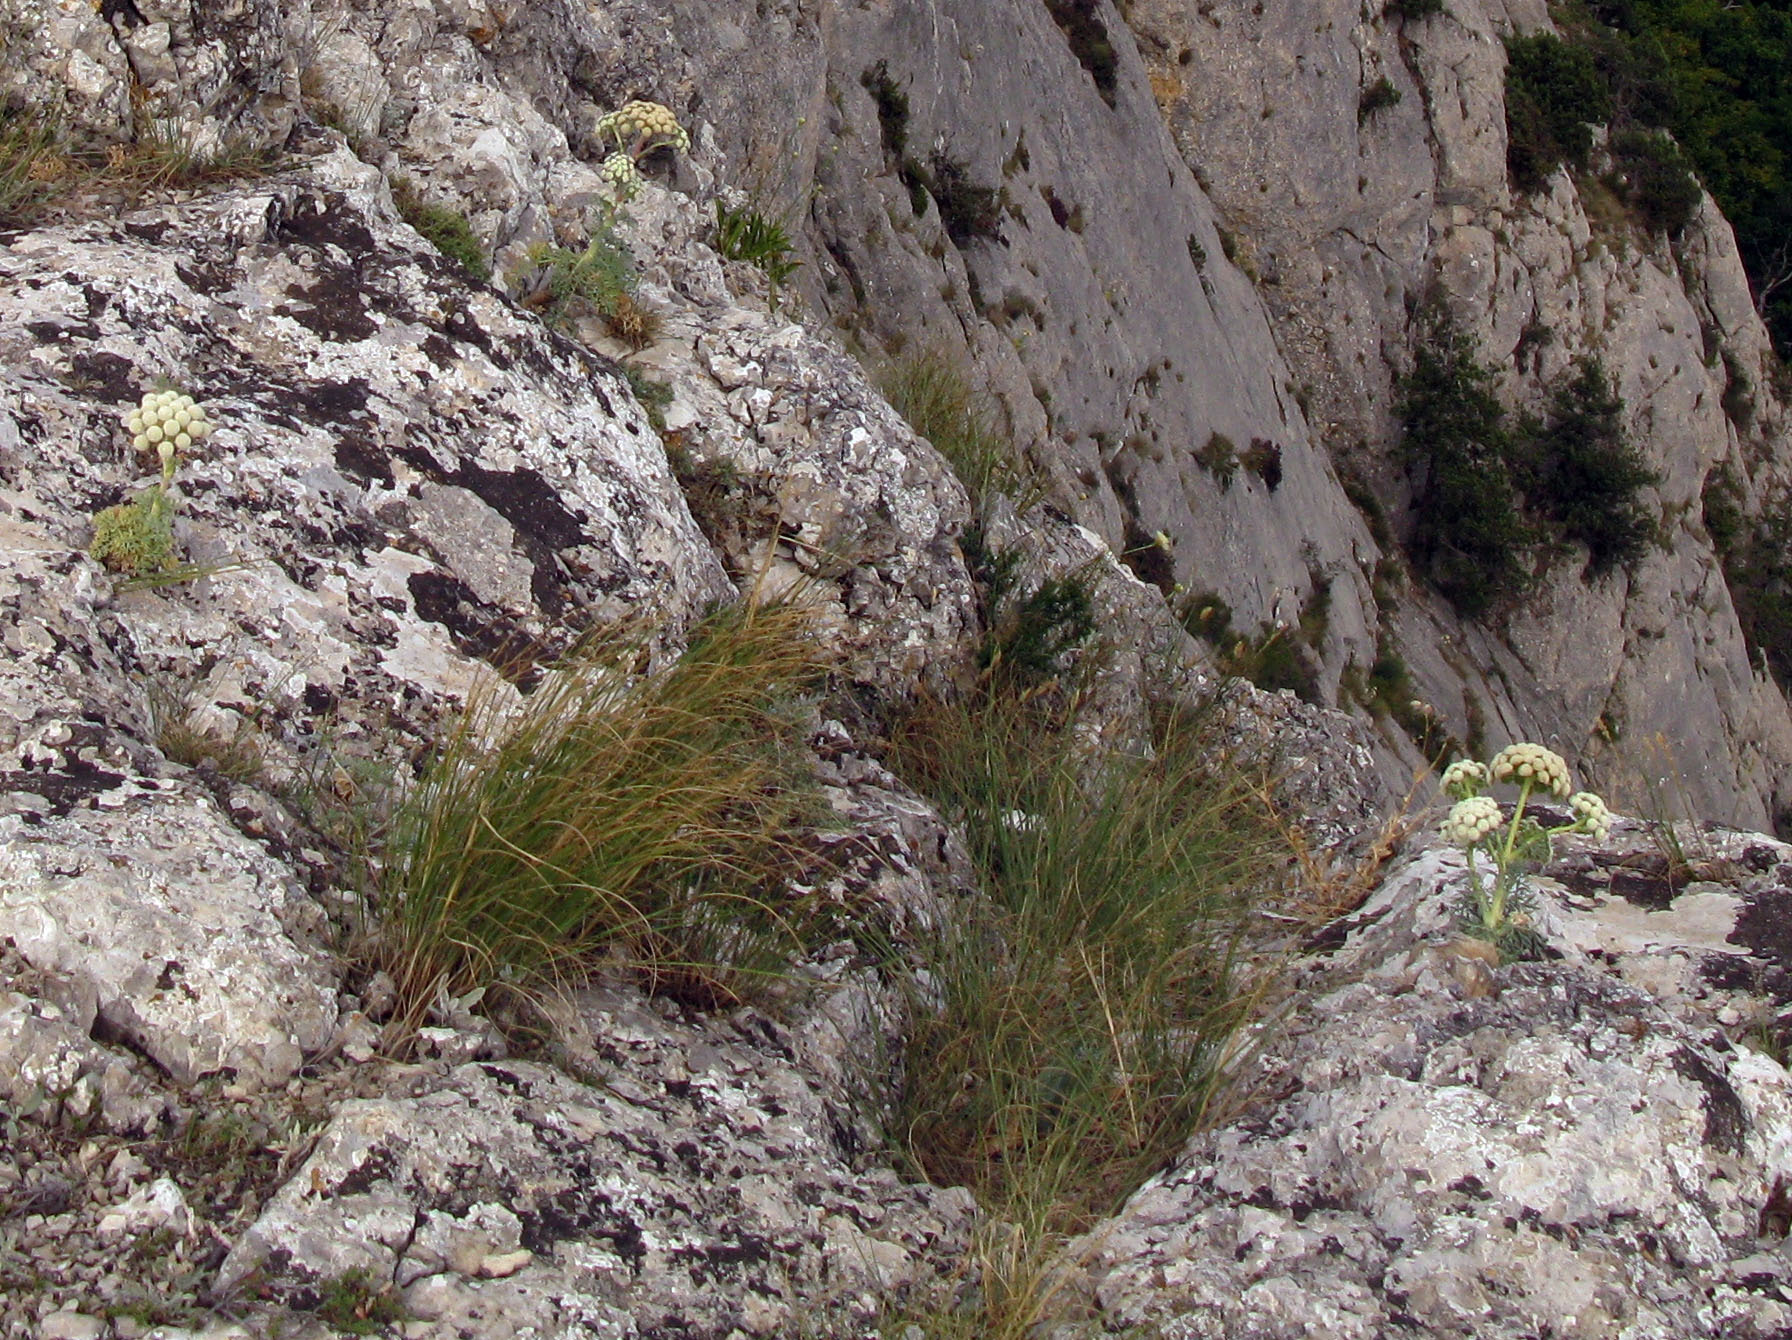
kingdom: Plantae
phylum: Tracheophyta
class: Magnoliopsida
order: Apiales
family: Apiaceae
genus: Seseli
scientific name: Seseli gummiferum
